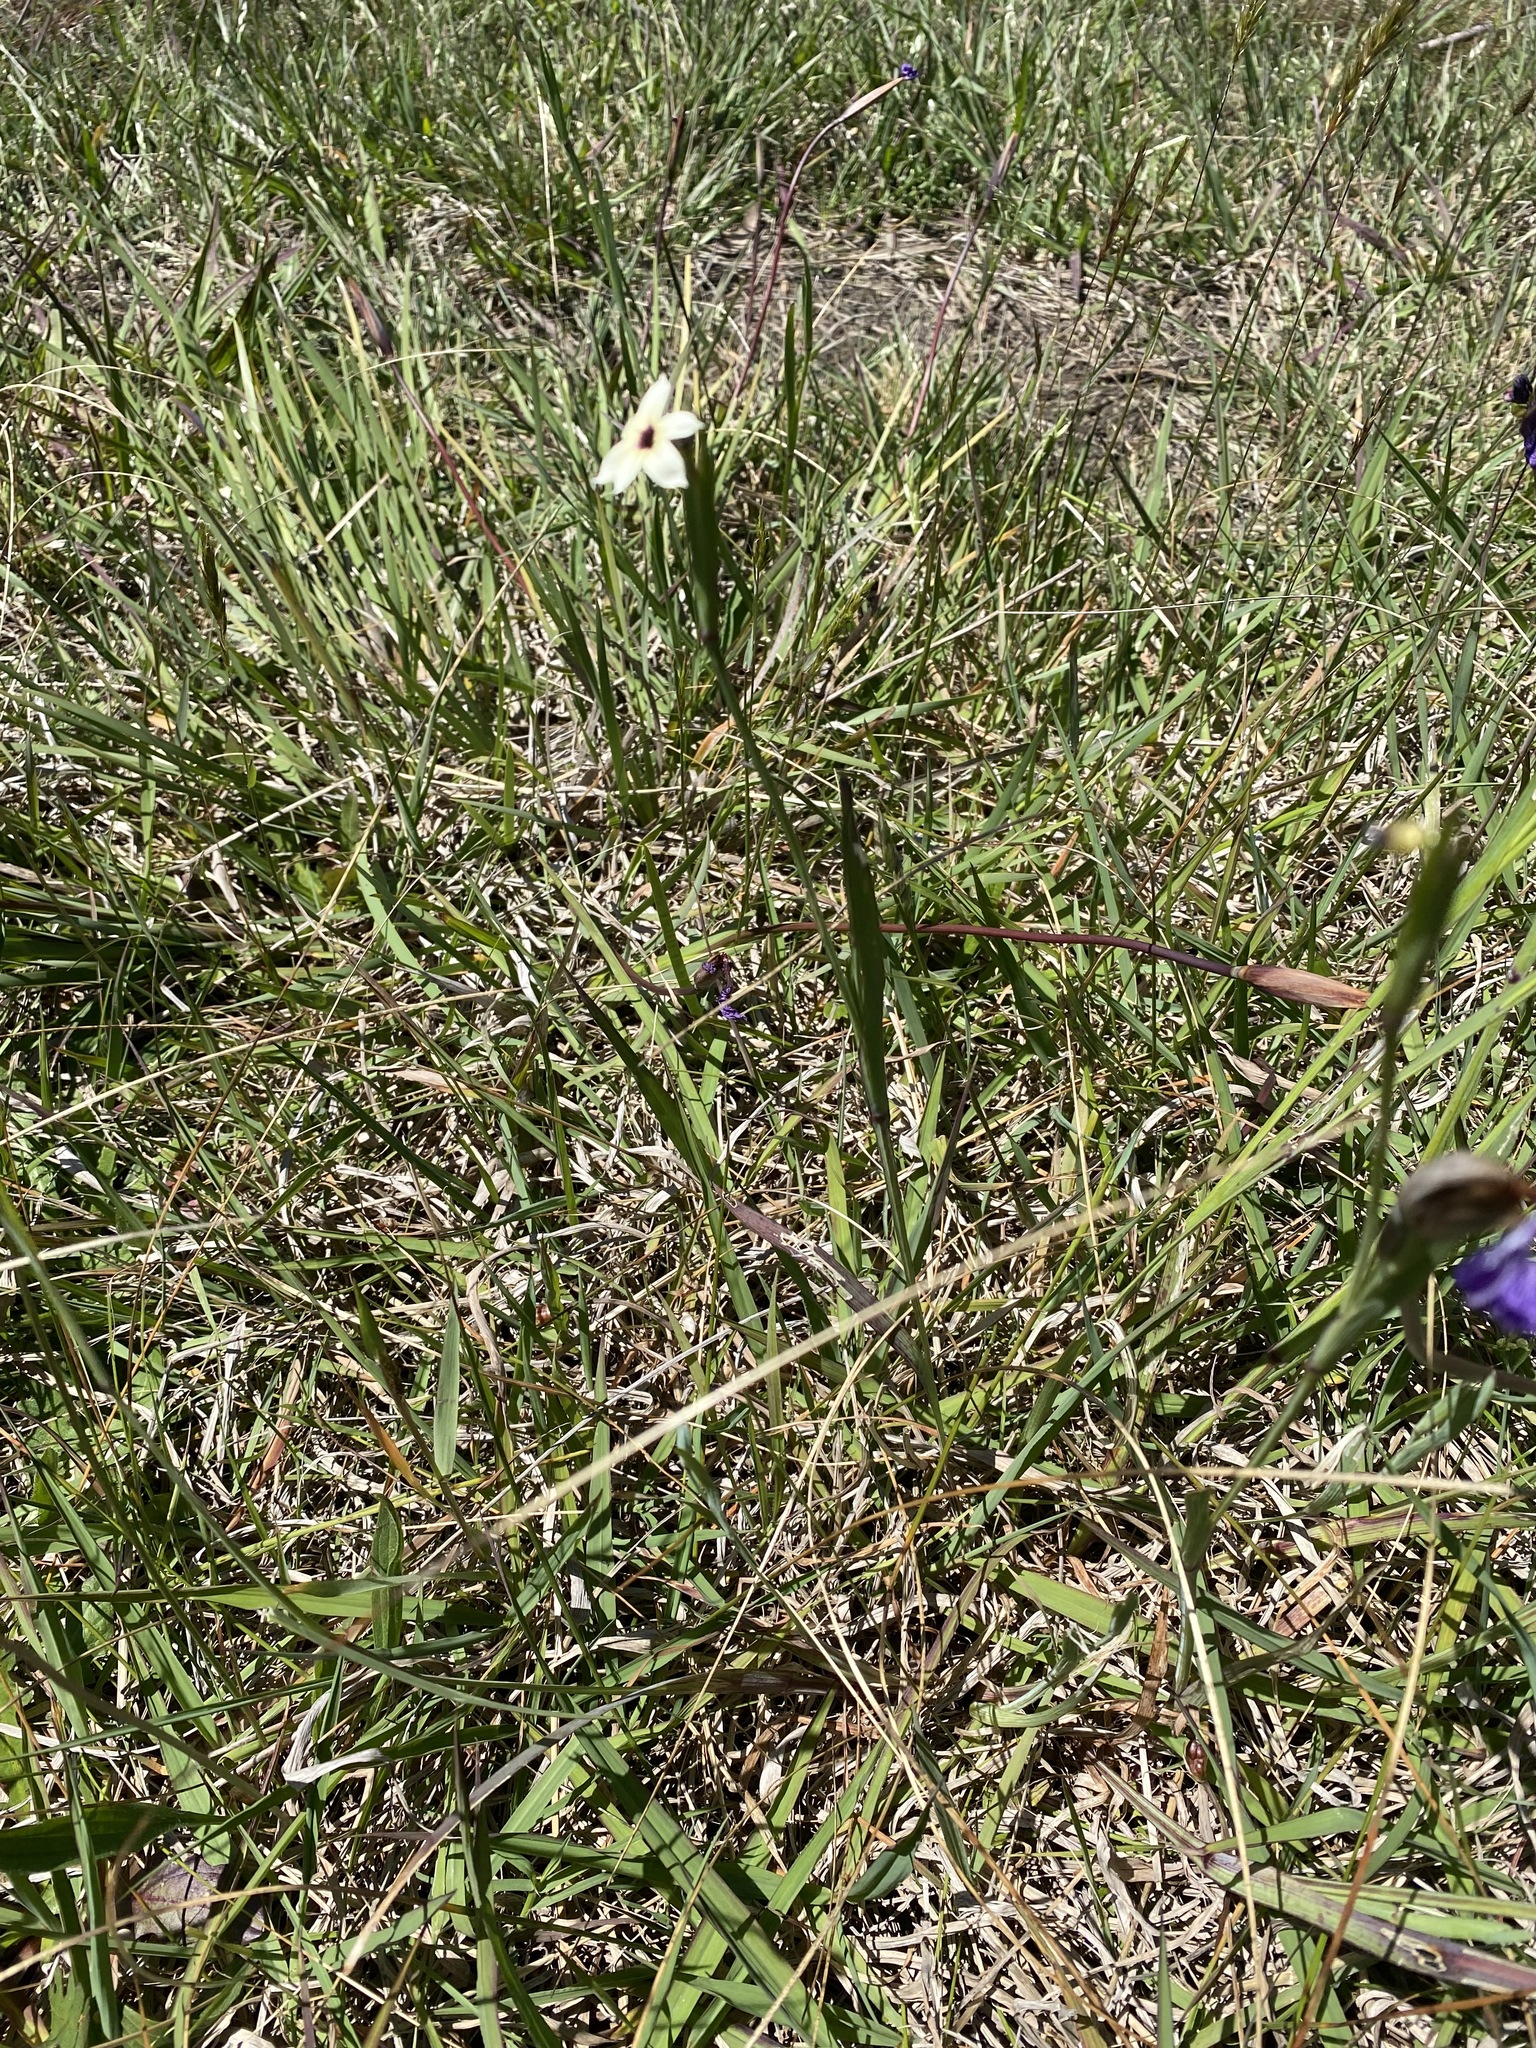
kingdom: Plantae
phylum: Tracheophyta
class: Liliopsida
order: Asparagales
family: Iridaceae
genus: Sisyrinchium
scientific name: Sisyrinchium micranthum
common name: Bermuda pigroot
